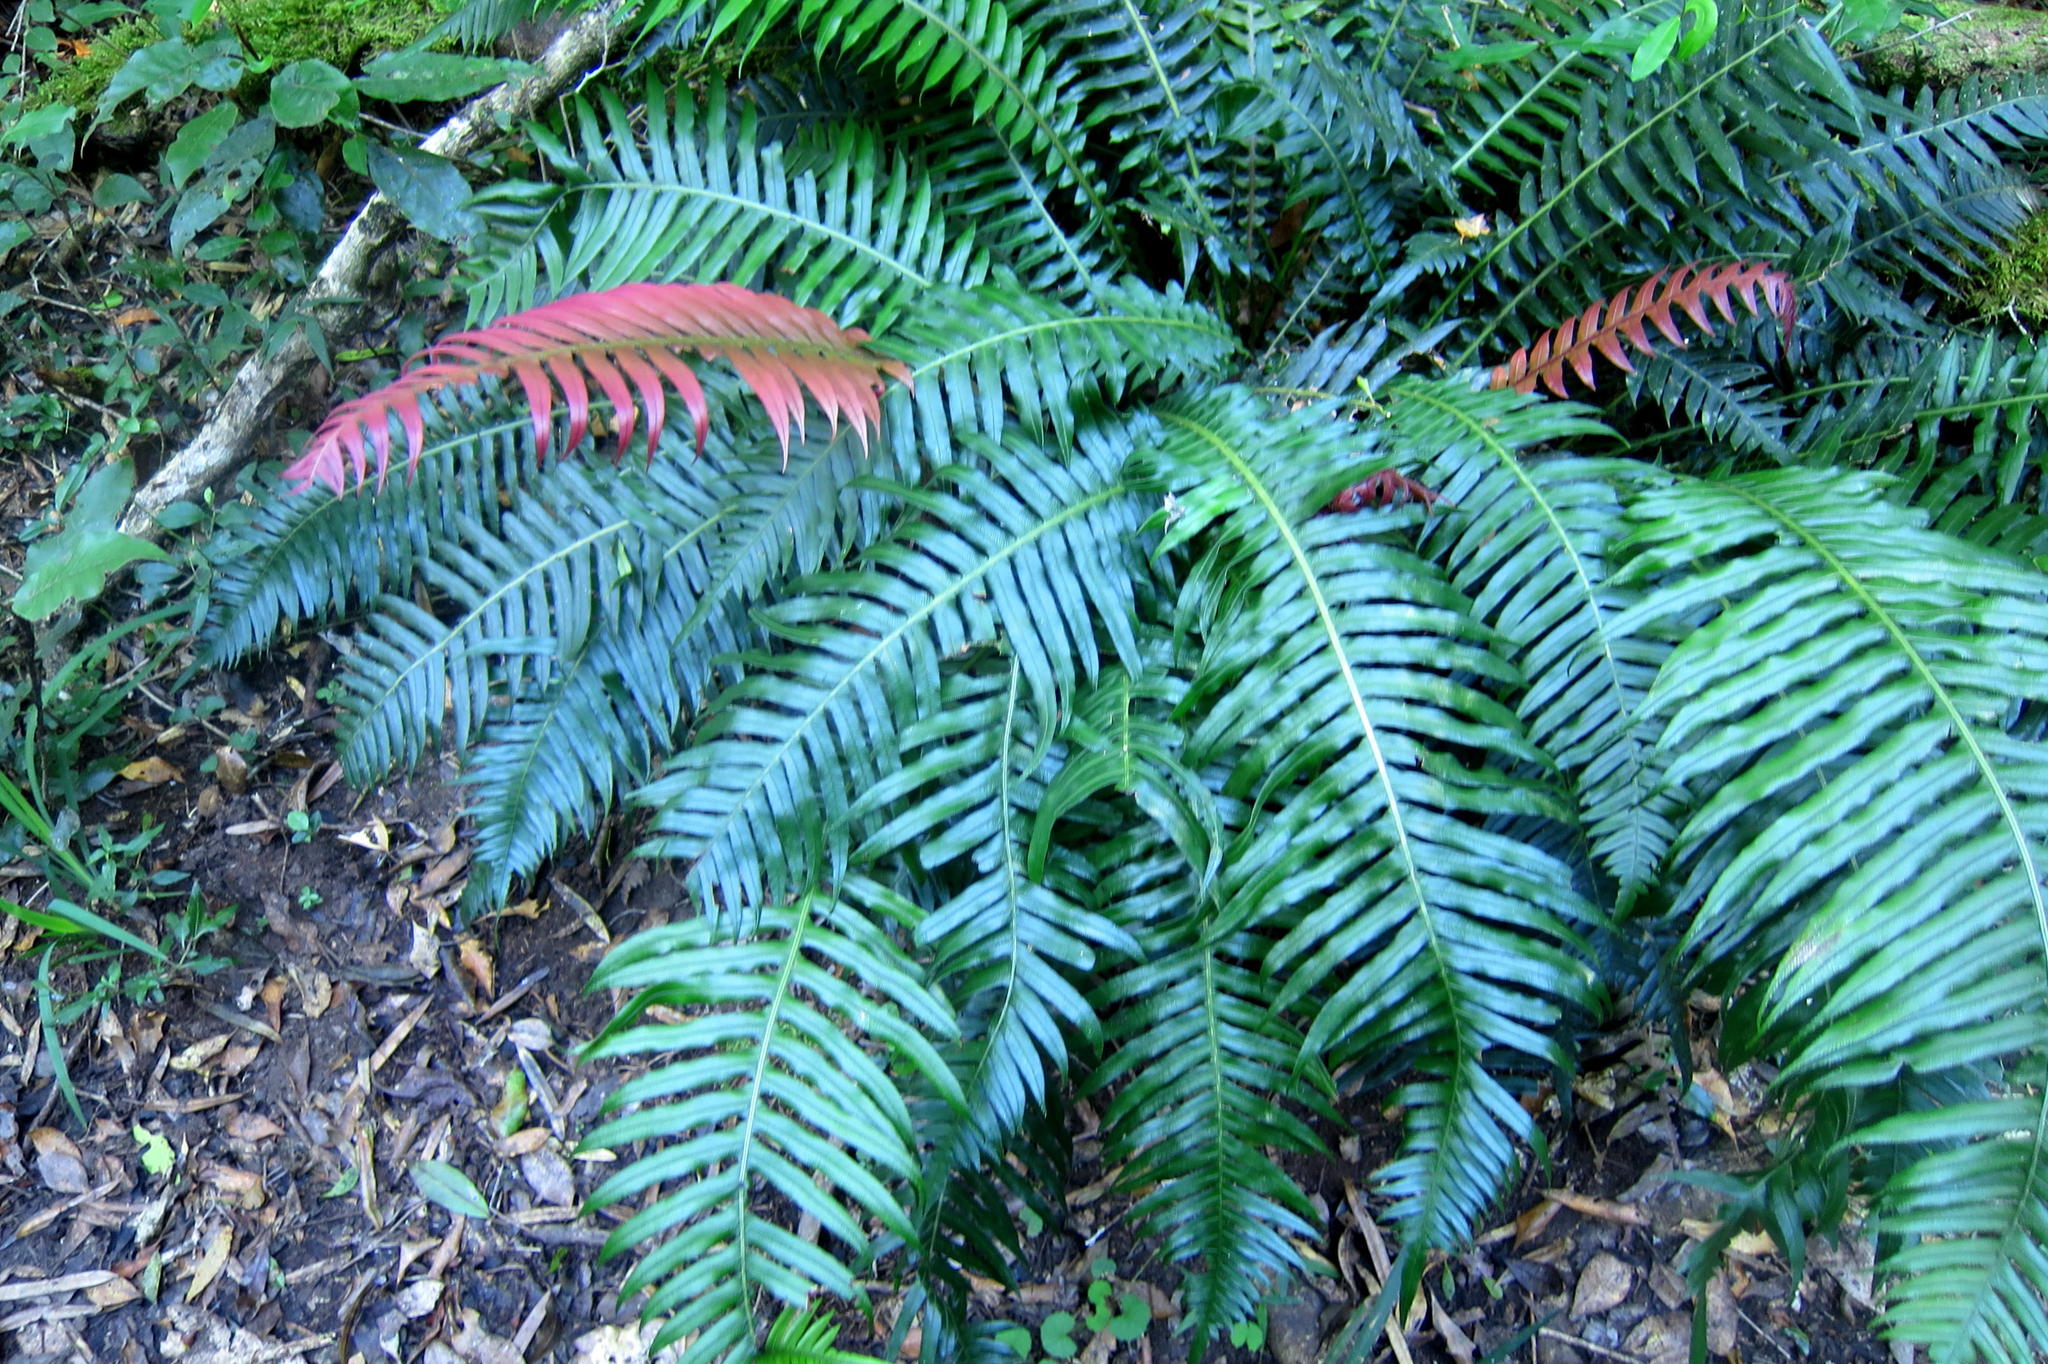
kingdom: Plantae
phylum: Tracheophyta
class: Polypodiopsida
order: Polypodiales
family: Blechnaceae
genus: Lomaridium
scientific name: Lomaridium attenuatum
